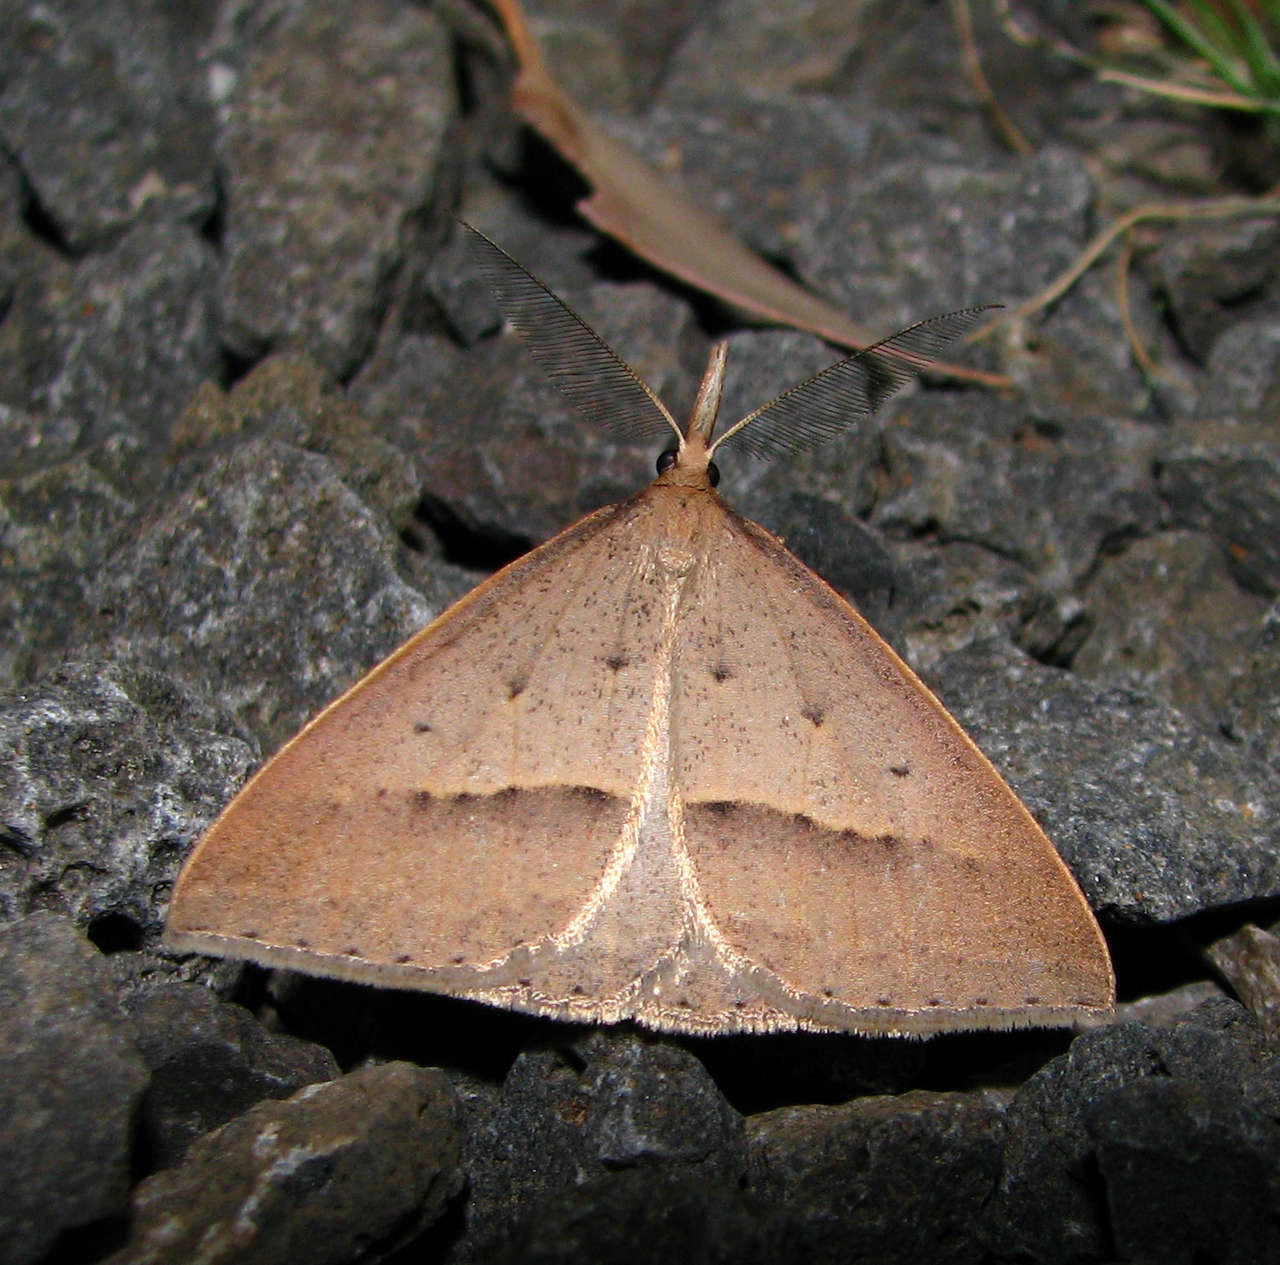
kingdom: Animalia
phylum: Arthropoda
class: Insecta
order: Lepidoptera
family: Geometridae
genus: Epidesmia
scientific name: Epidesmia hypenaria
